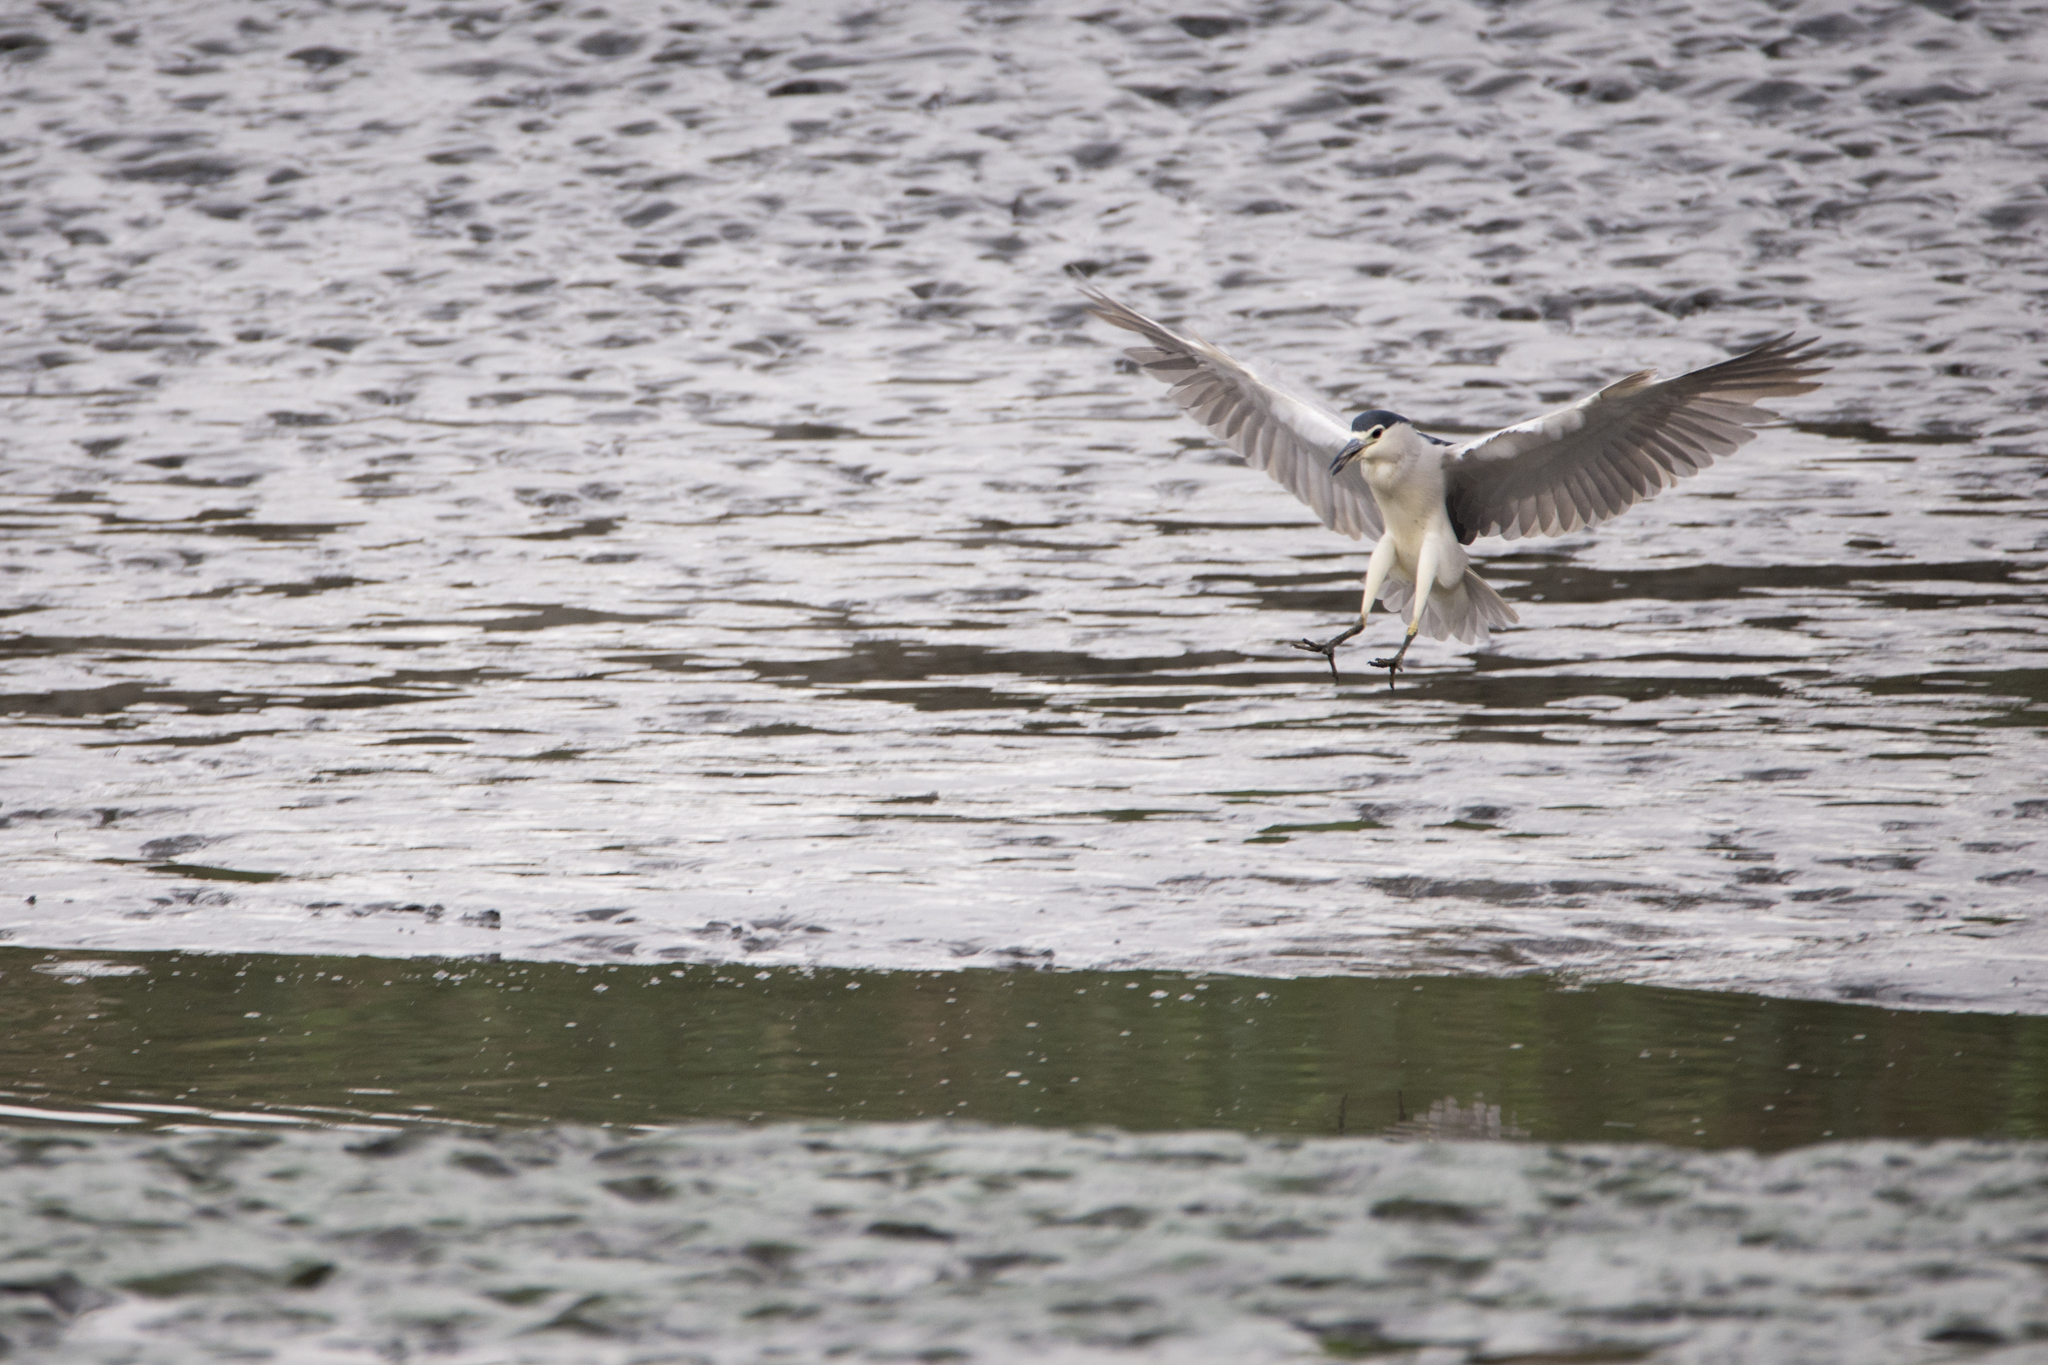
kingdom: Animalia
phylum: Chordata
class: Aves
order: Pelecaniformes
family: Ardeidae
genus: Nycticorax
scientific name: Nycticorax nycticorax
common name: Black-crowned night heron
